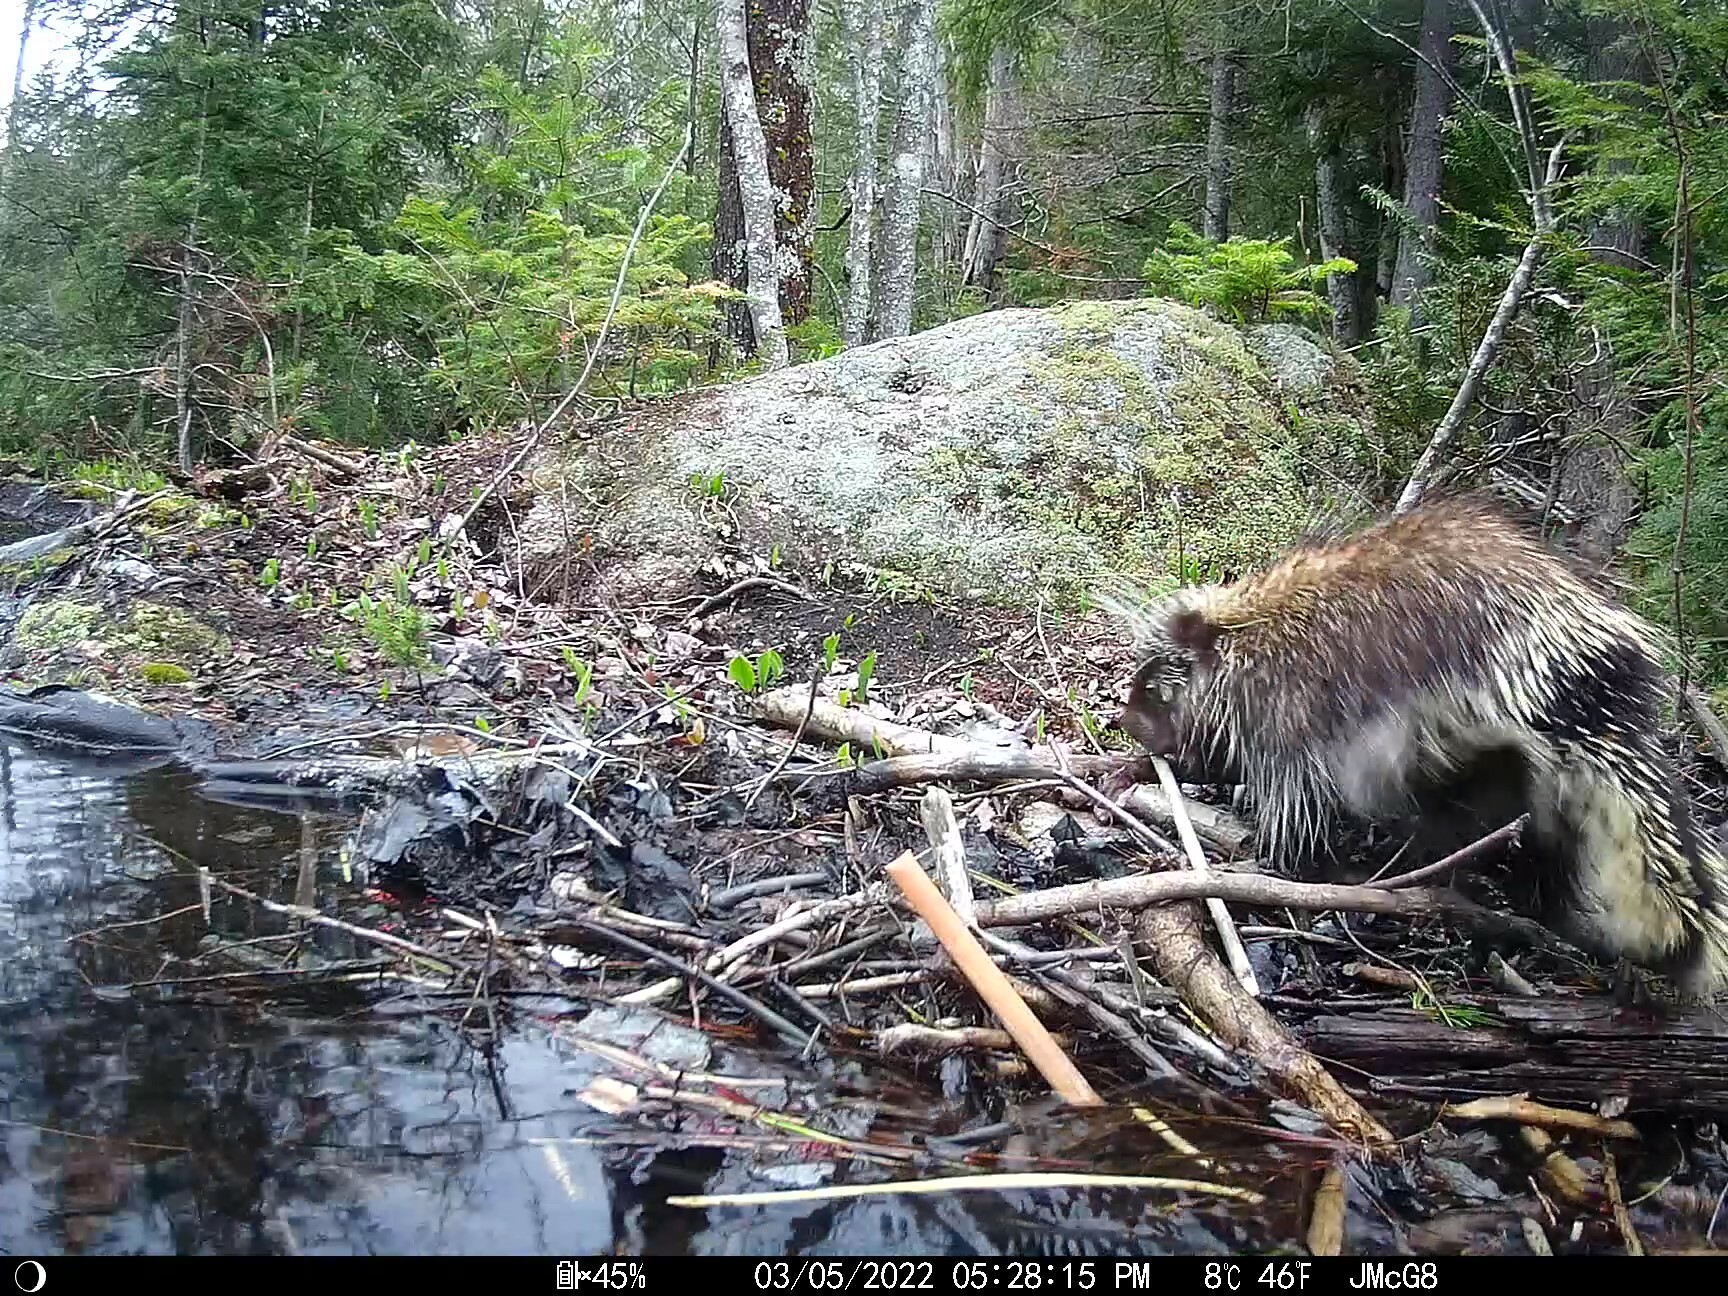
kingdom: Animalia
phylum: Chordata
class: Mammalia
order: Rodentia
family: Erethizontidae
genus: Erethizon
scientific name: Erethizon dorsatus
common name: North american porcupine
